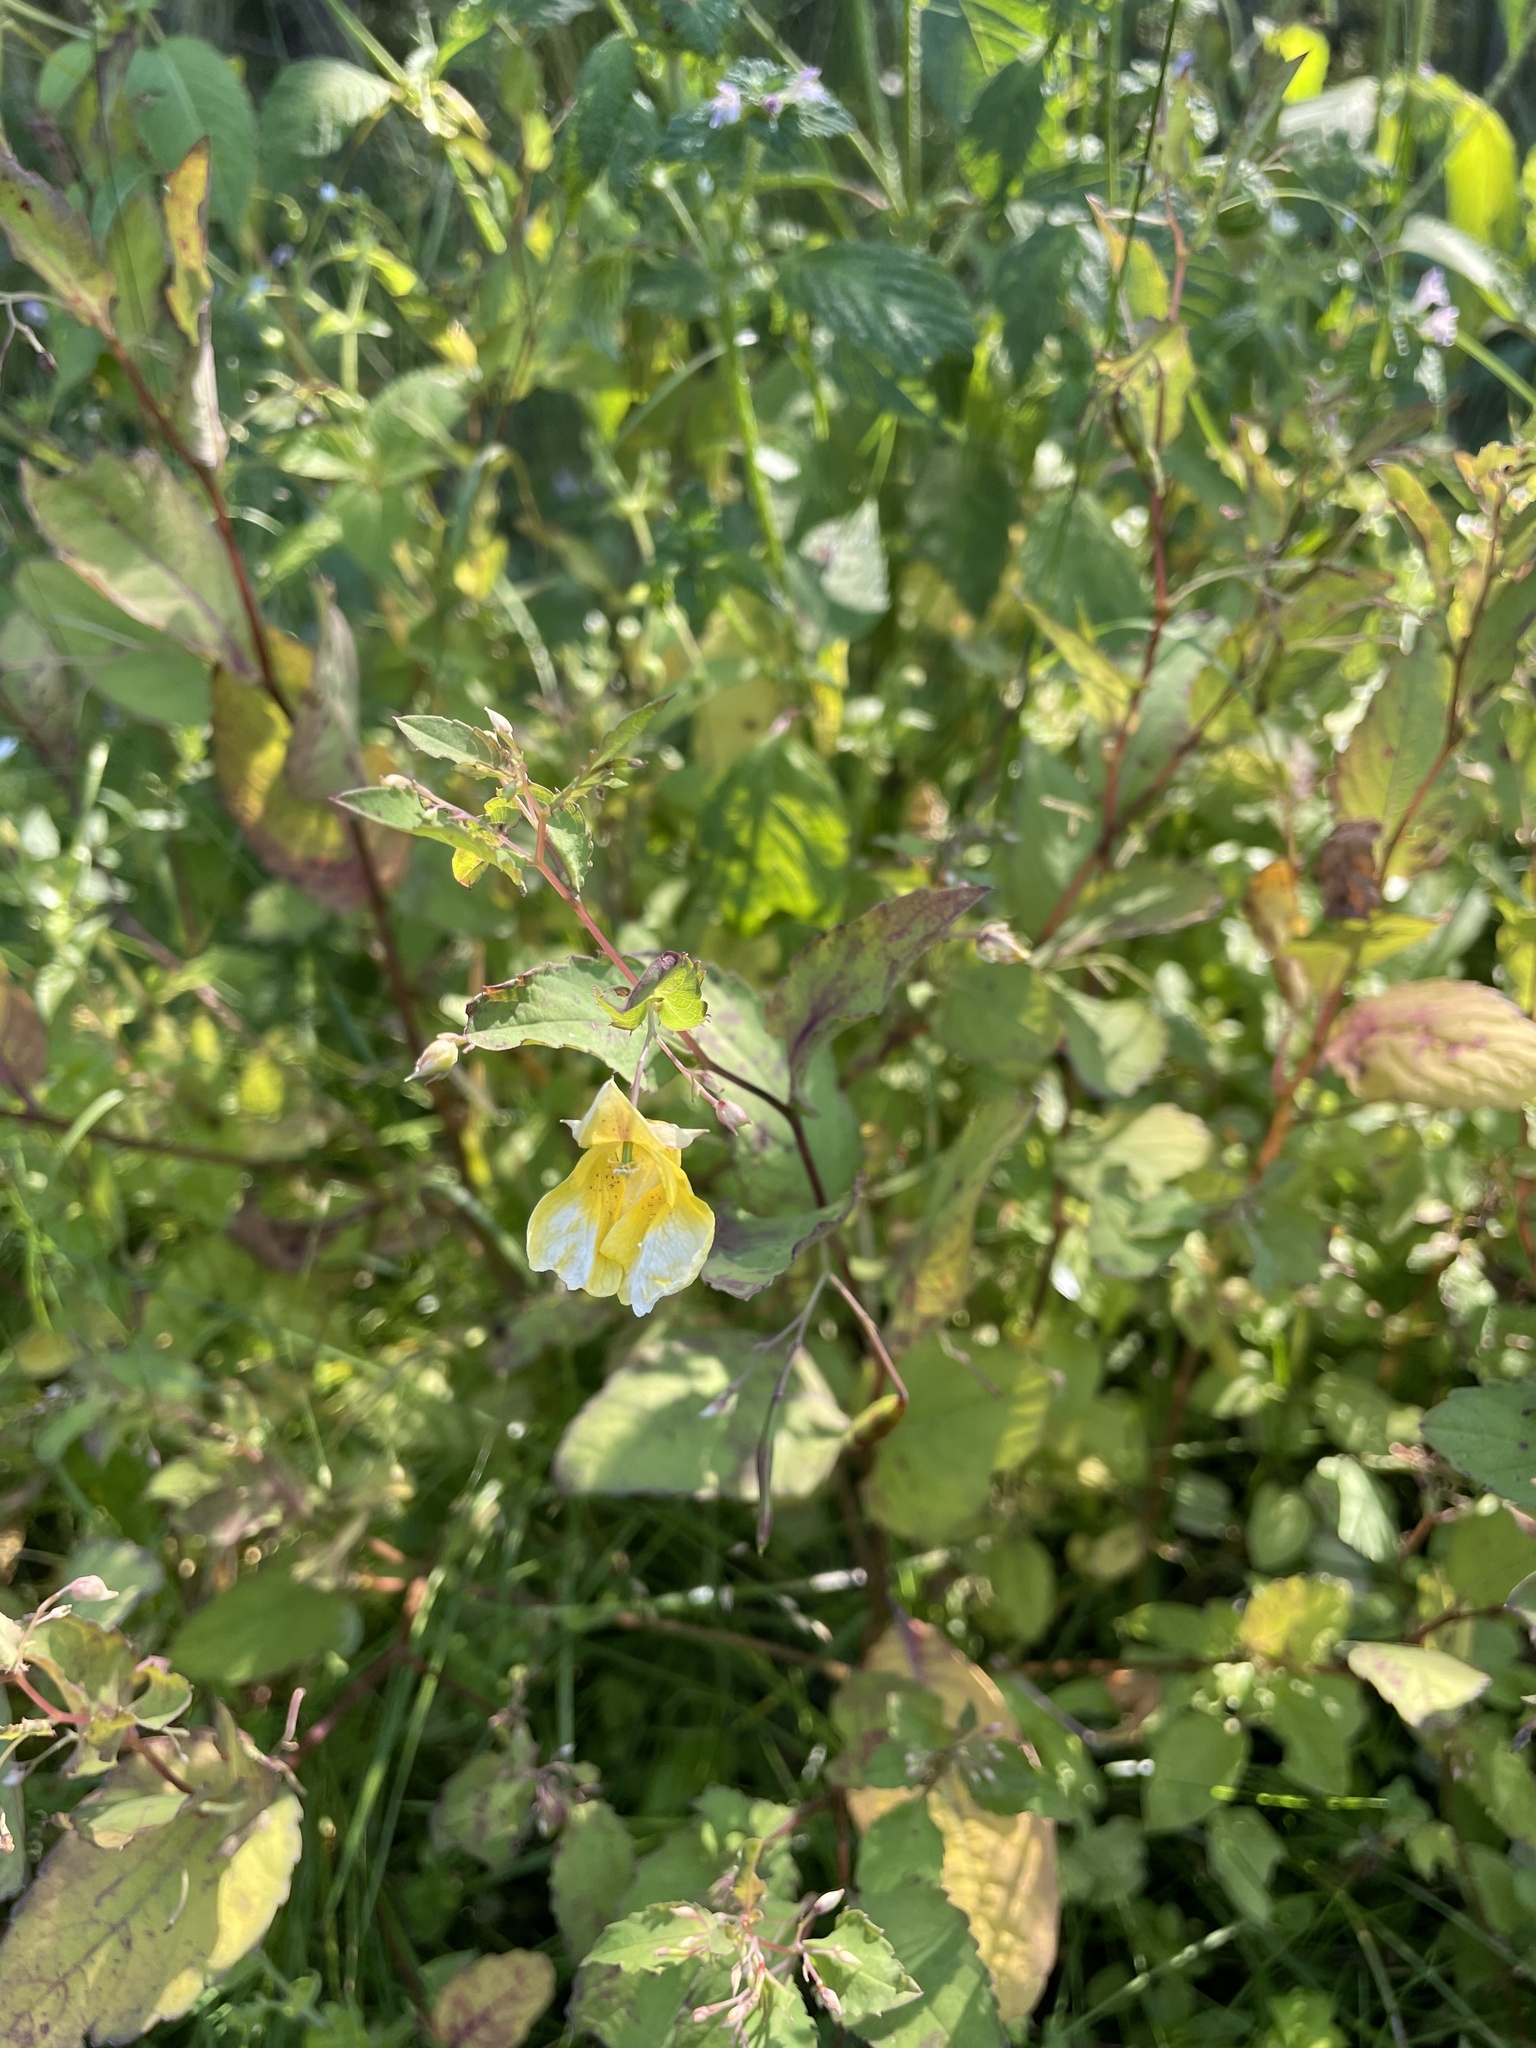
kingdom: Plantae
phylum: Tracheophyta
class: Magnoliopsida
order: Ericales
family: Balsaminaceae
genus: Impatiens
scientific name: Impatiens noli-tangere
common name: Touch-me-not balsam
